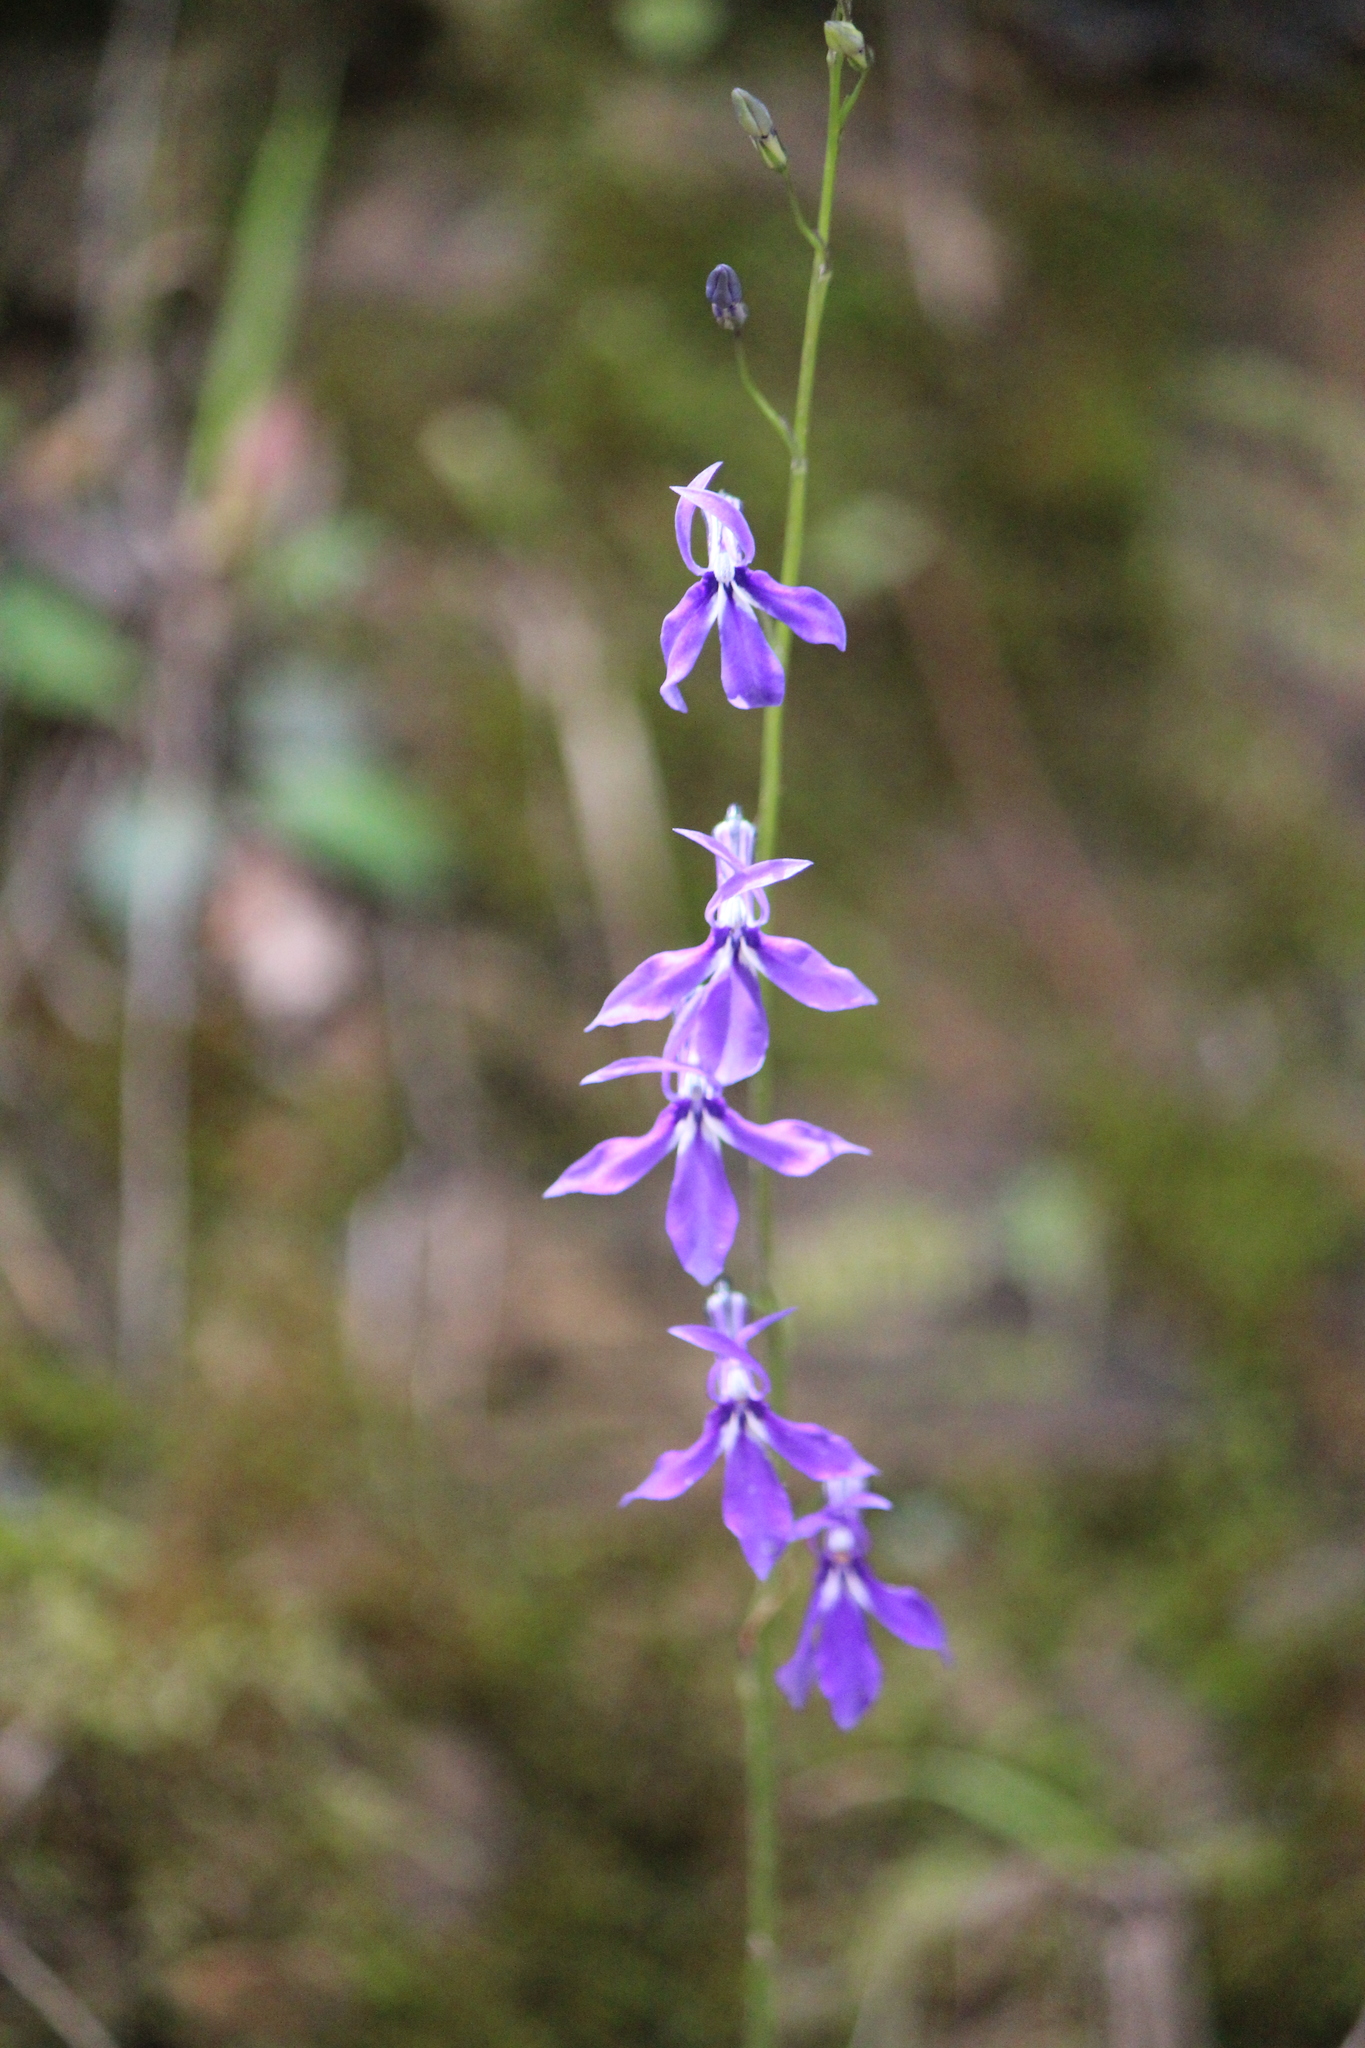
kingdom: Plantae
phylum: Tracheophyta
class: Magnoliopsida
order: Asterales
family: Campanulaceae
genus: Lobelia
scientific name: Lobelia anatina
